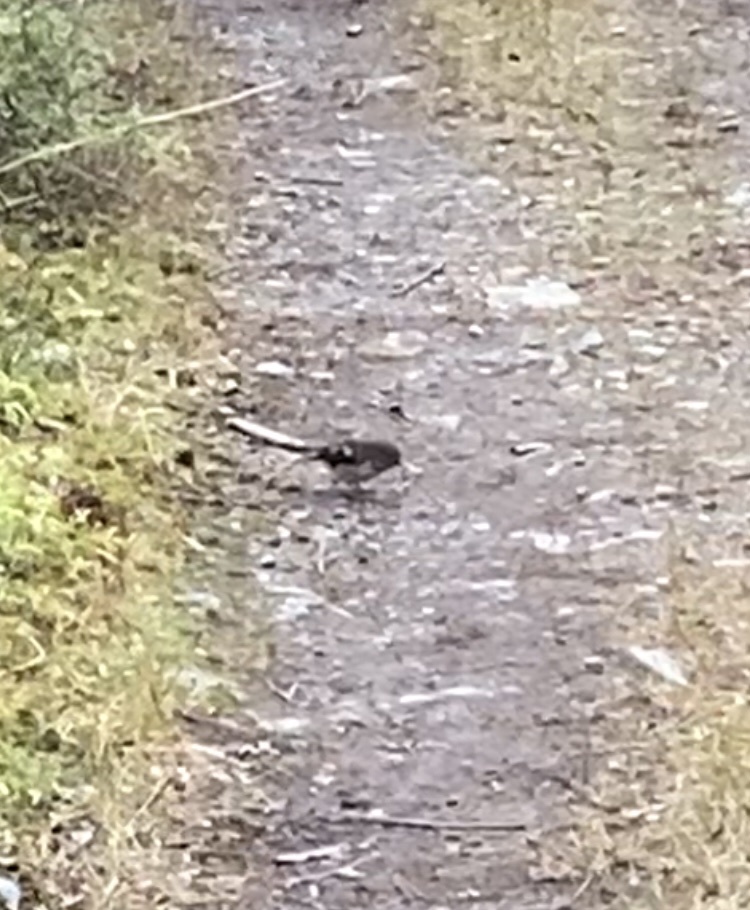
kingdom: Animalia
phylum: Chordata
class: Aves
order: Passeriformes
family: Petroicidae
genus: Petroica
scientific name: Petroica macrocephala
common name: Tomtit
